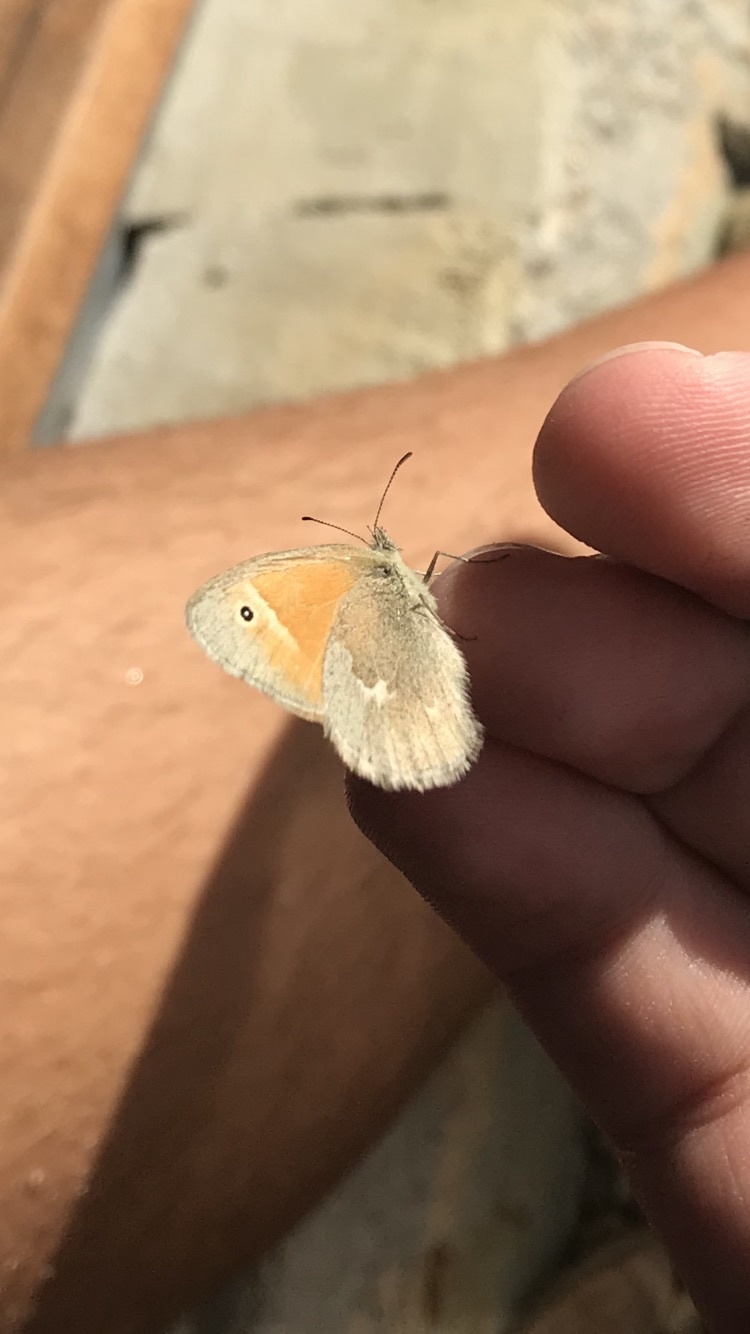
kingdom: Animalia
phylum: Arthropoda
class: Insecta
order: Lepidoptera
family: Nymphalidae
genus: Coenonympha
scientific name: Coenonympha california
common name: Common ringlet
